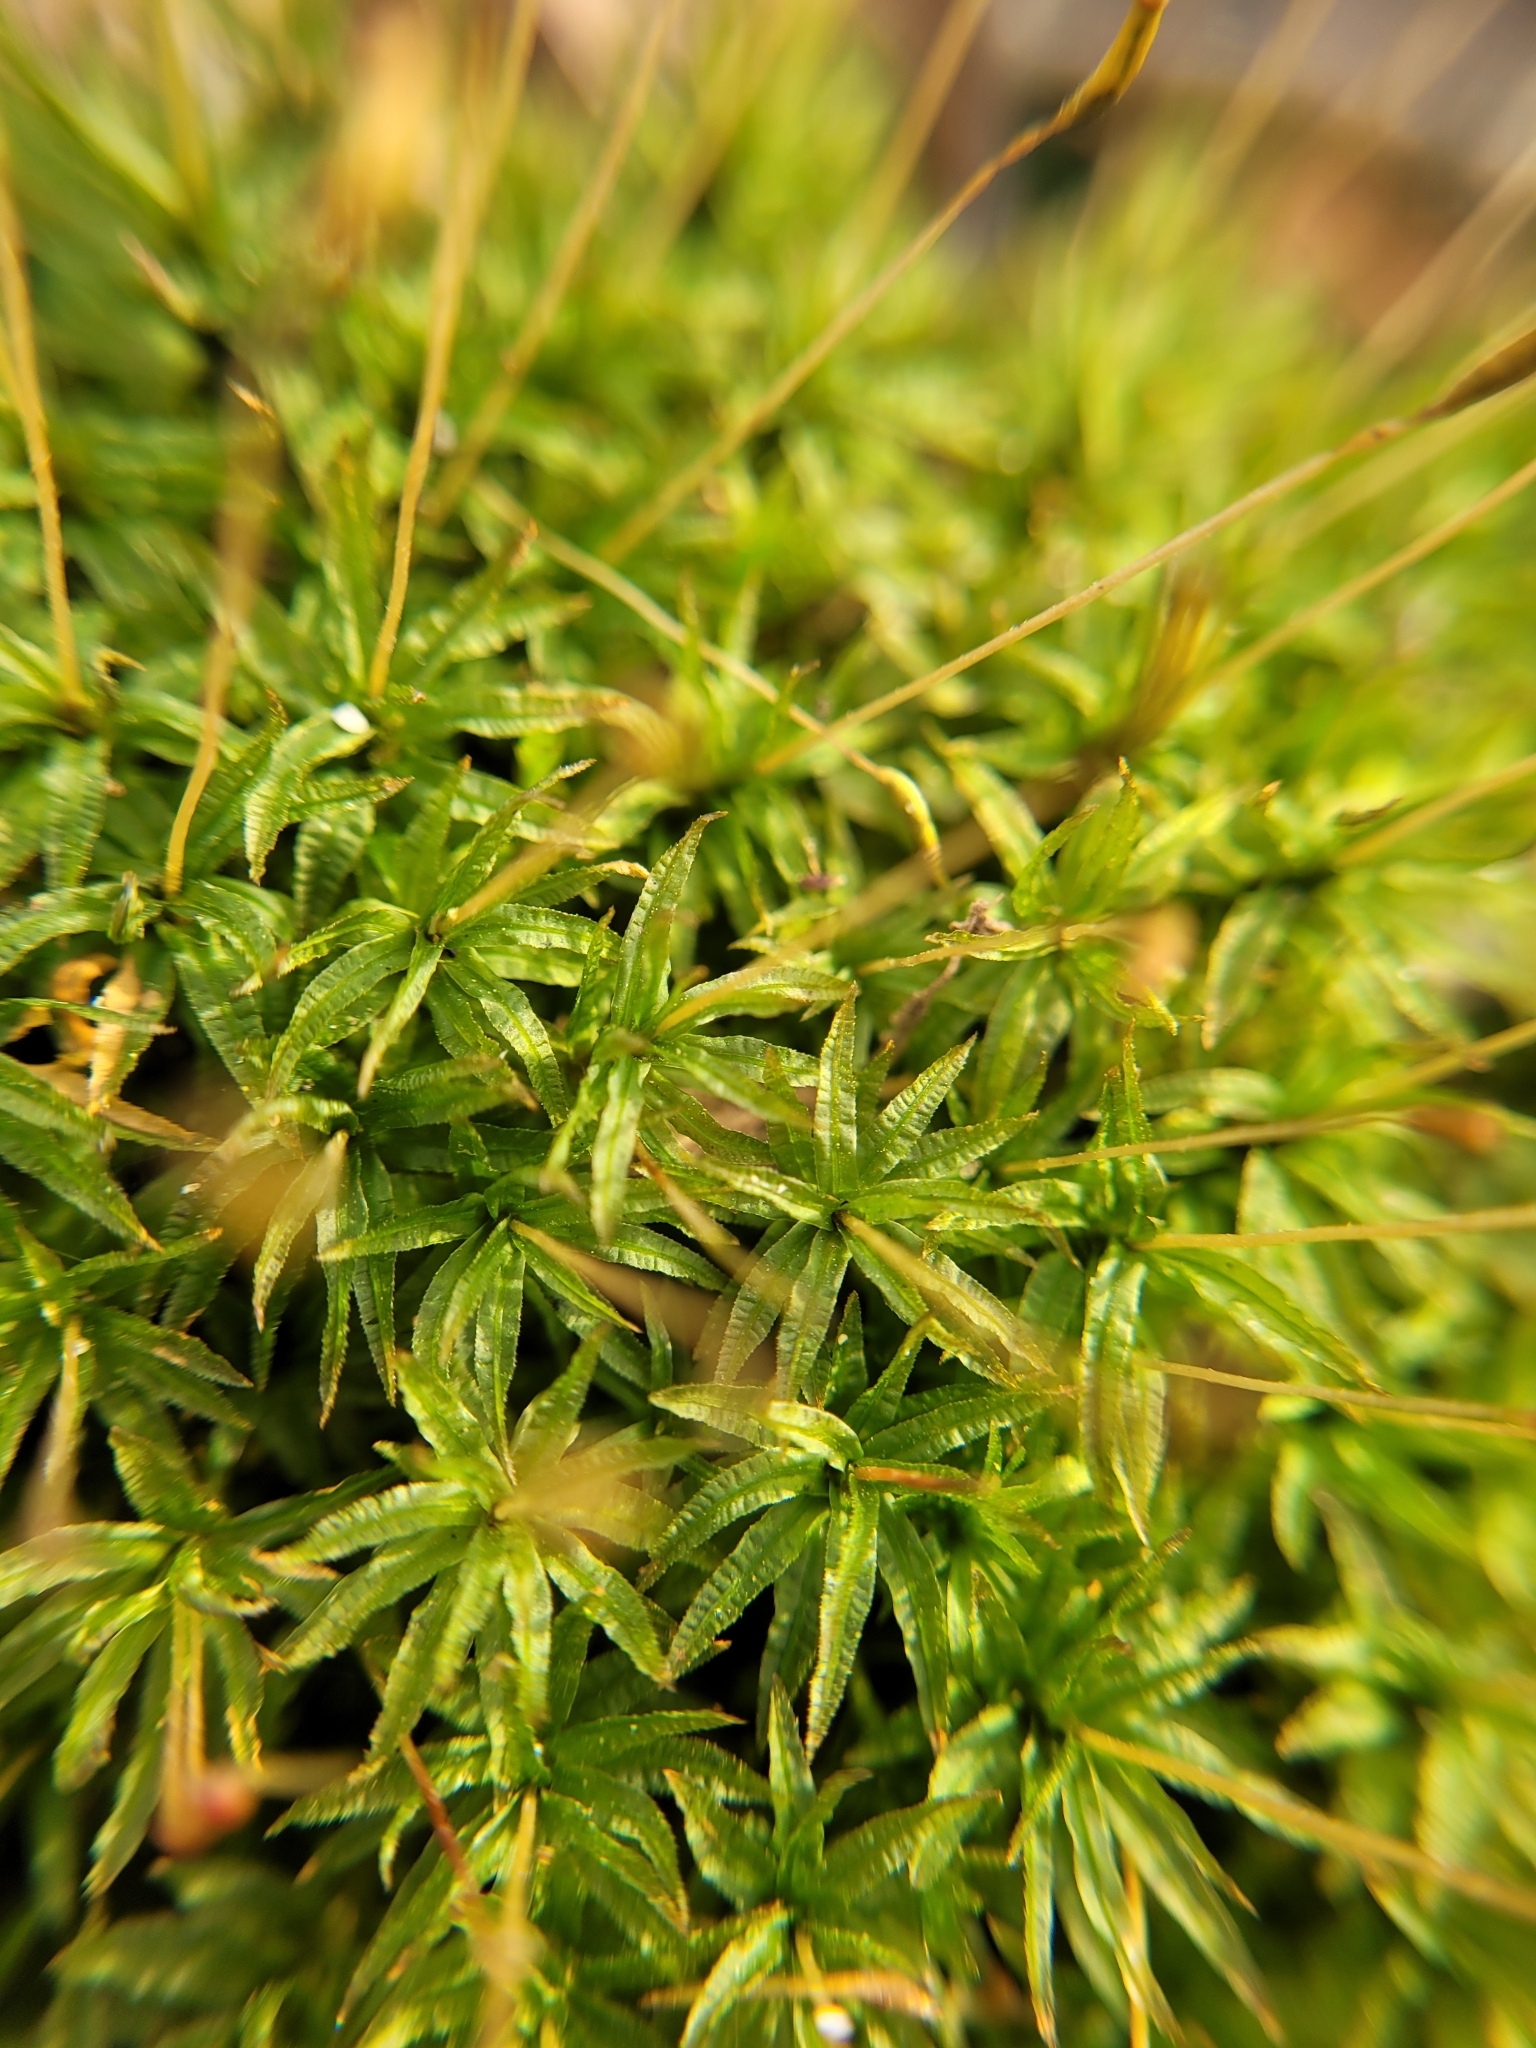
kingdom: Plantae
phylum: Bryophyta
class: Polytrichopsida
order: Polytrichales
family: Polytrichaceae
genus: Atrichum
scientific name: Atrichum undulatum
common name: Common smoothcap
